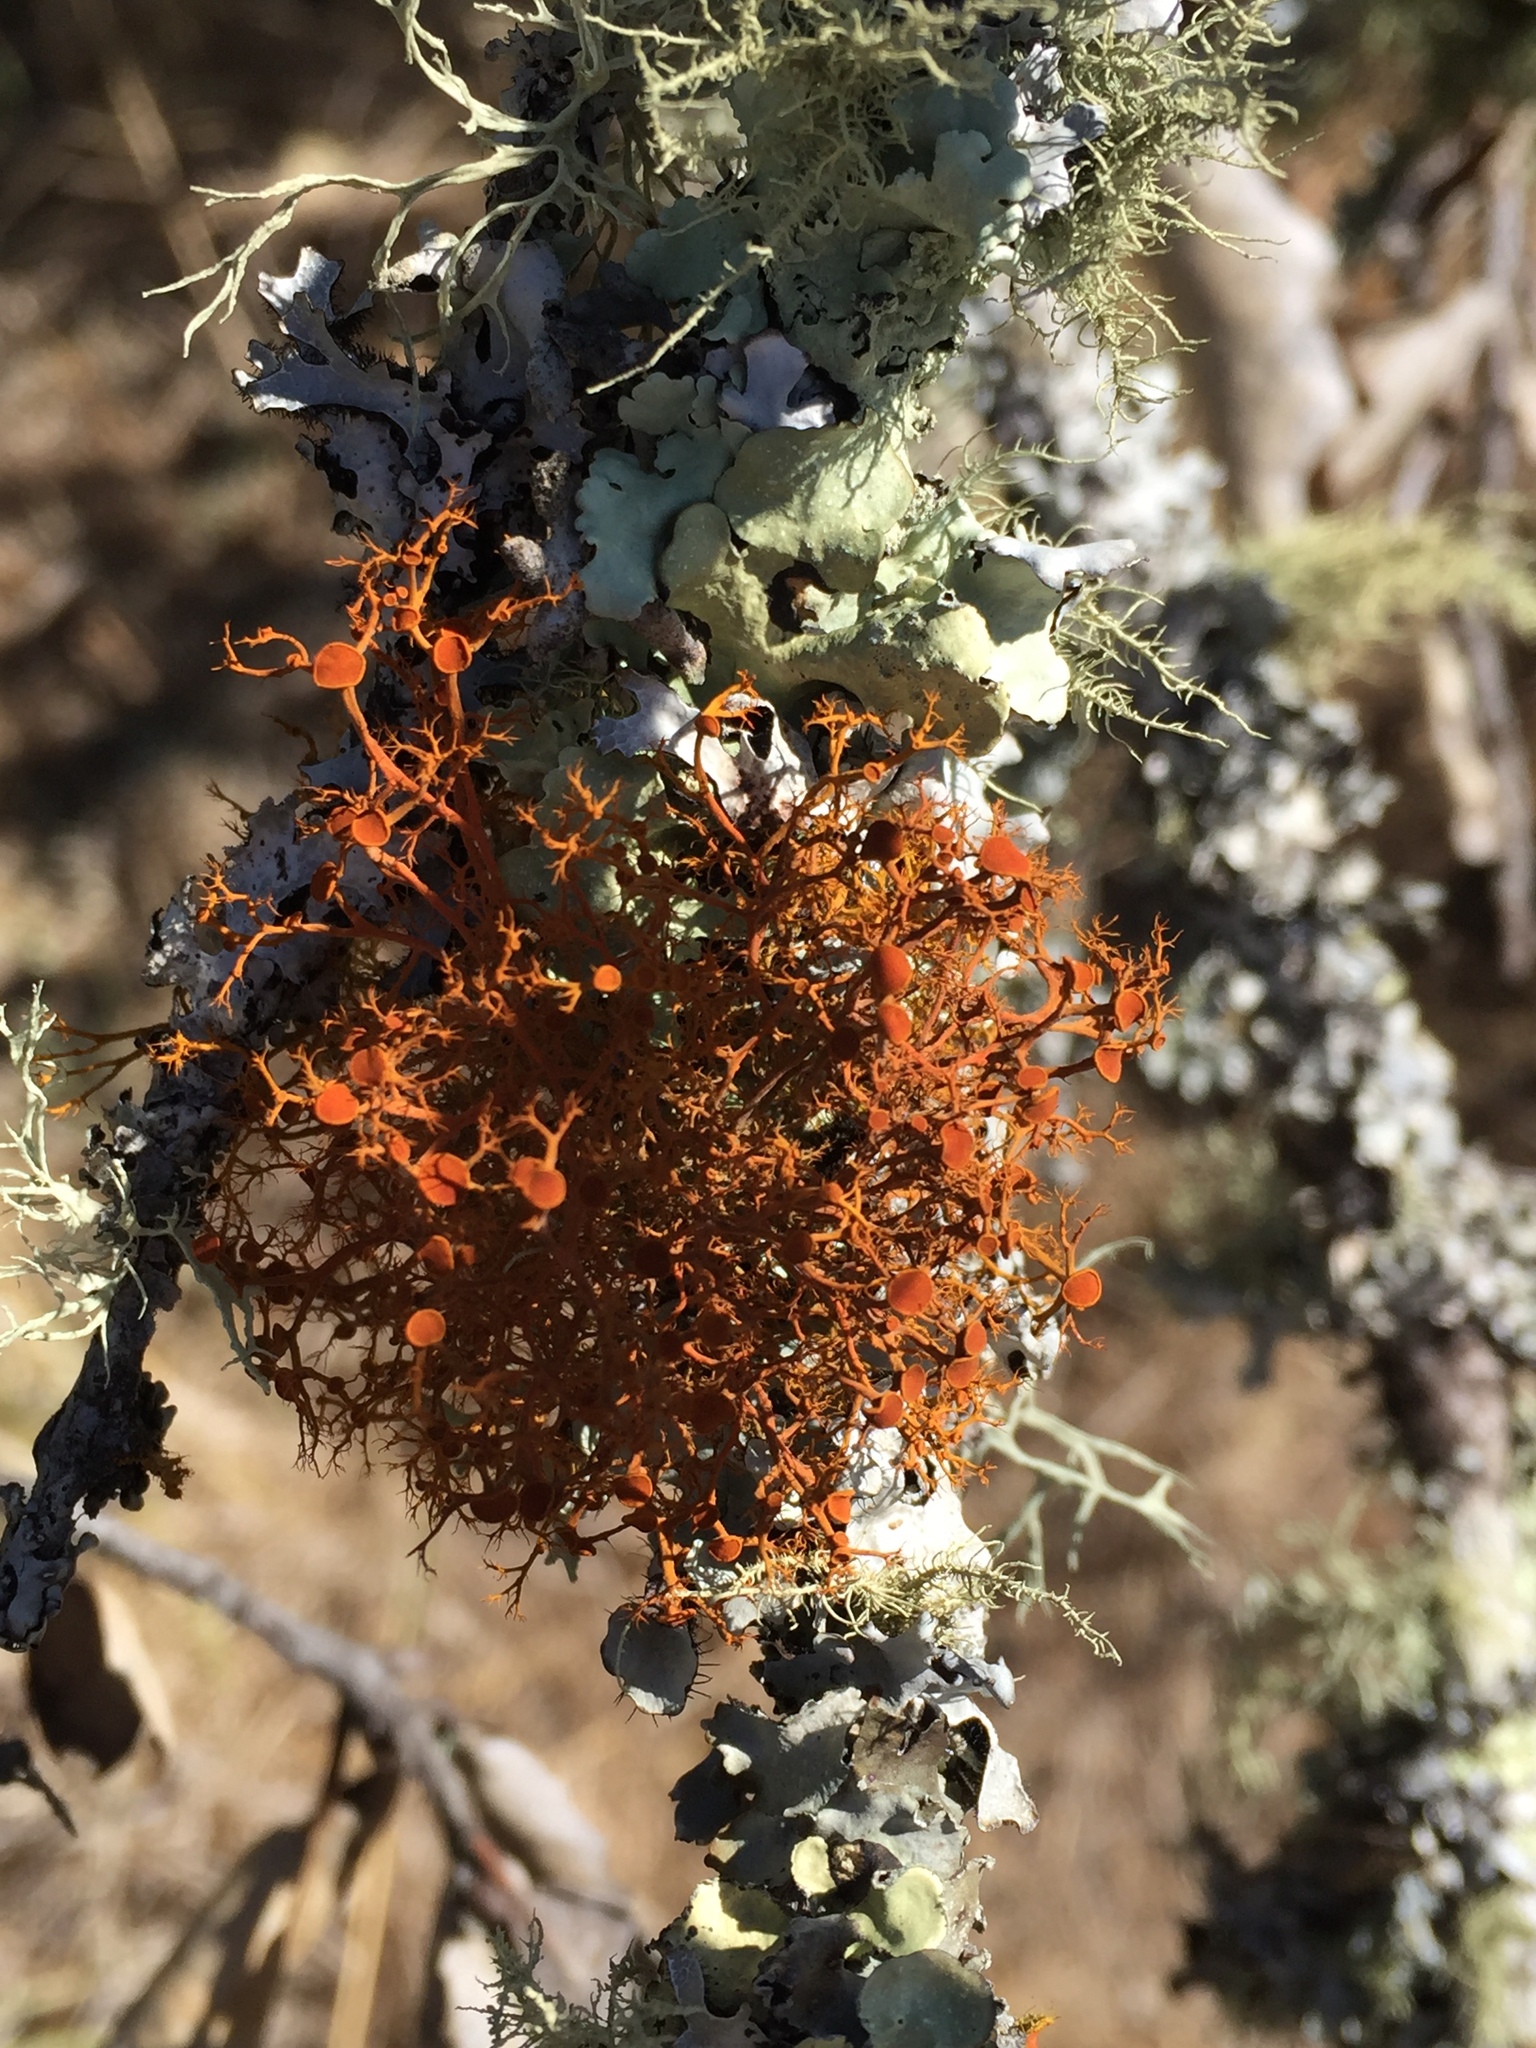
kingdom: Fungi
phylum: Ascomycota
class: Lecanoromycetes
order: Teloschistales
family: Teloschistaceae
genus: Teloschistes
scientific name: Teloschistes flavicans
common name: Golden hair-lichen
